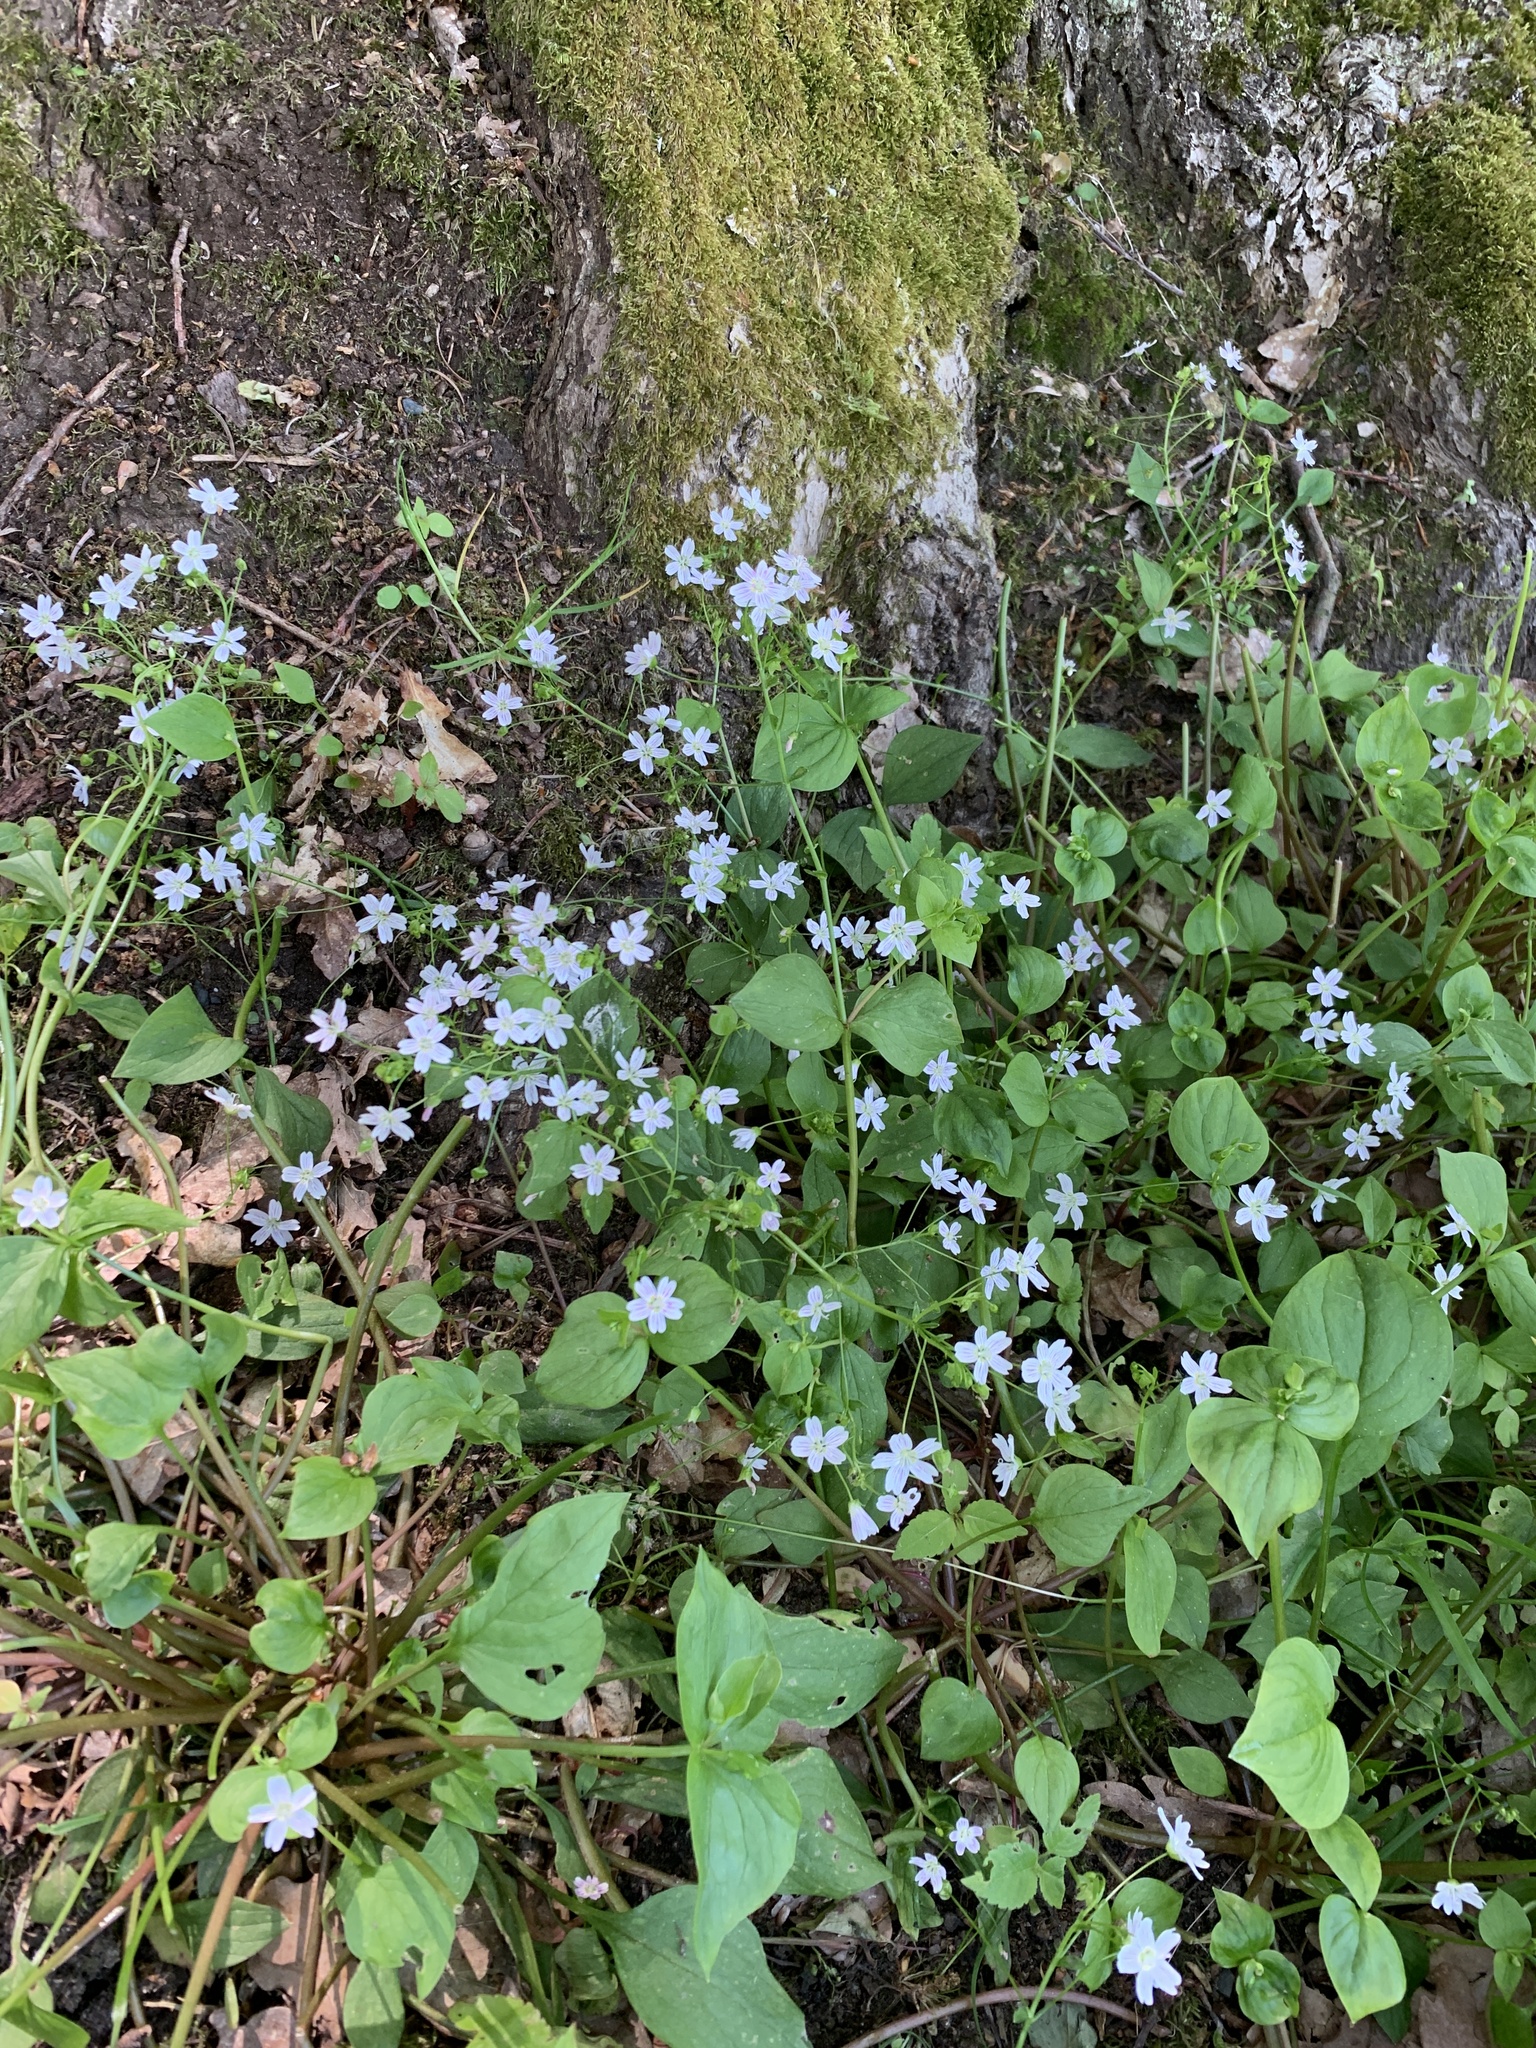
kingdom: Plantae
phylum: Tracheophyta
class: Magnoliopsida
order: Caryophyllales
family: Montiaceae
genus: Claytonia
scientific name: Claytonia sibirica
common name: Pink purslane
